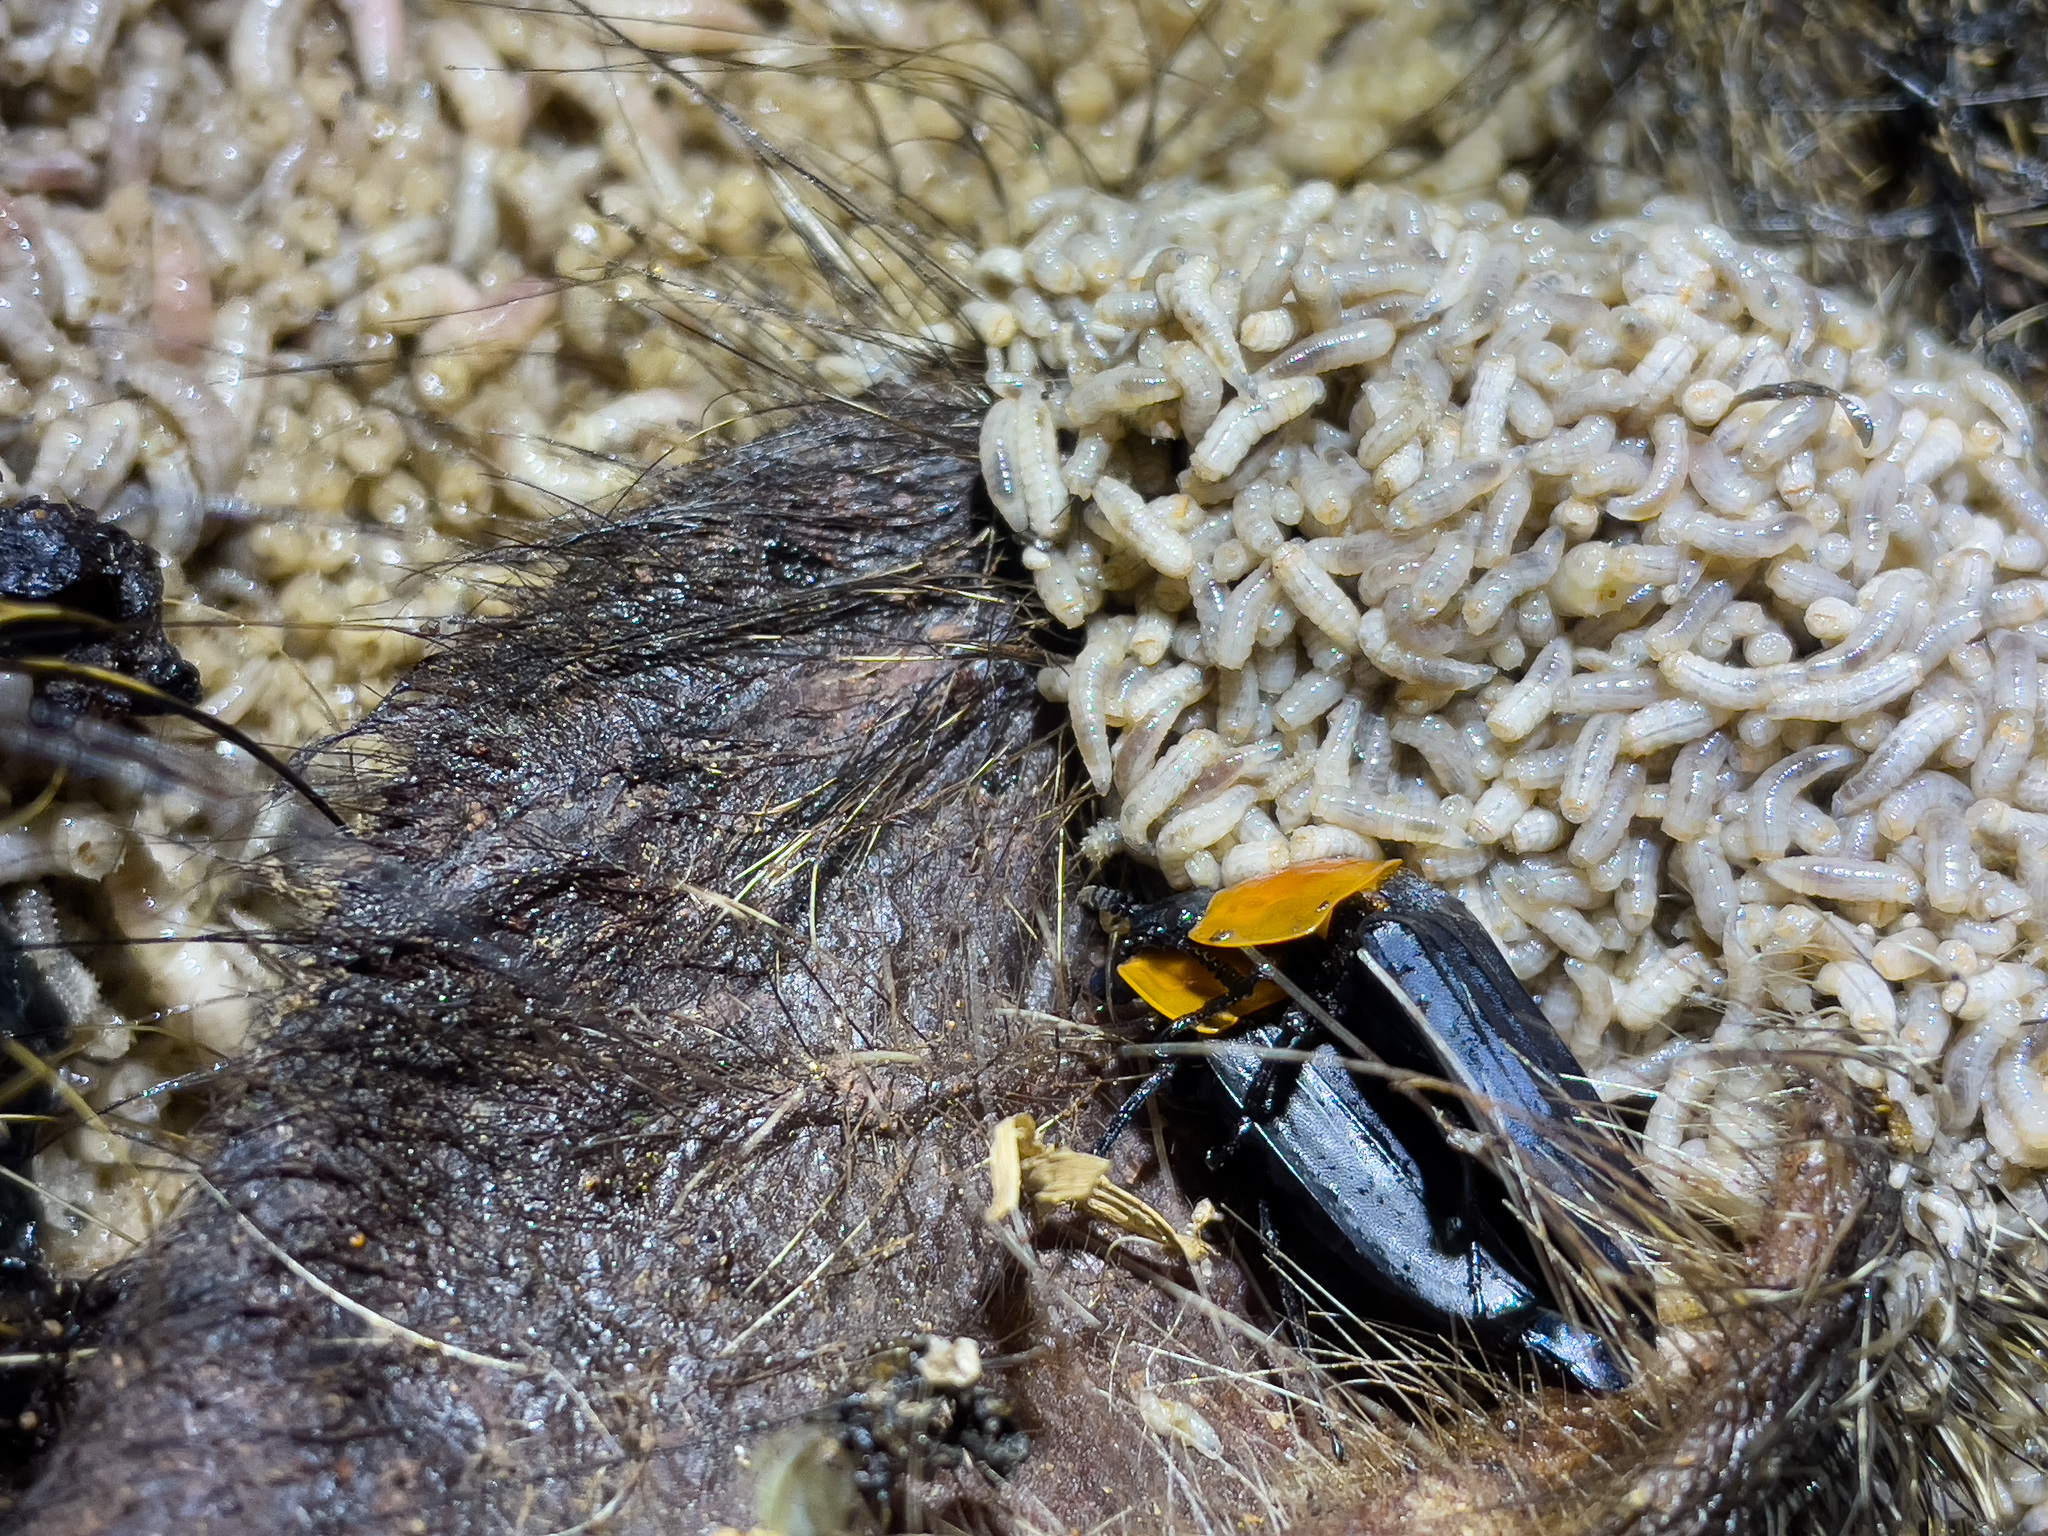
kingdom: Animalia
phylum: Arthropoda
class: Insecta
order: Coleoptera
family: Staphylinidae
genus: Necrophila
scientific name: Necrophila brunnicollis
